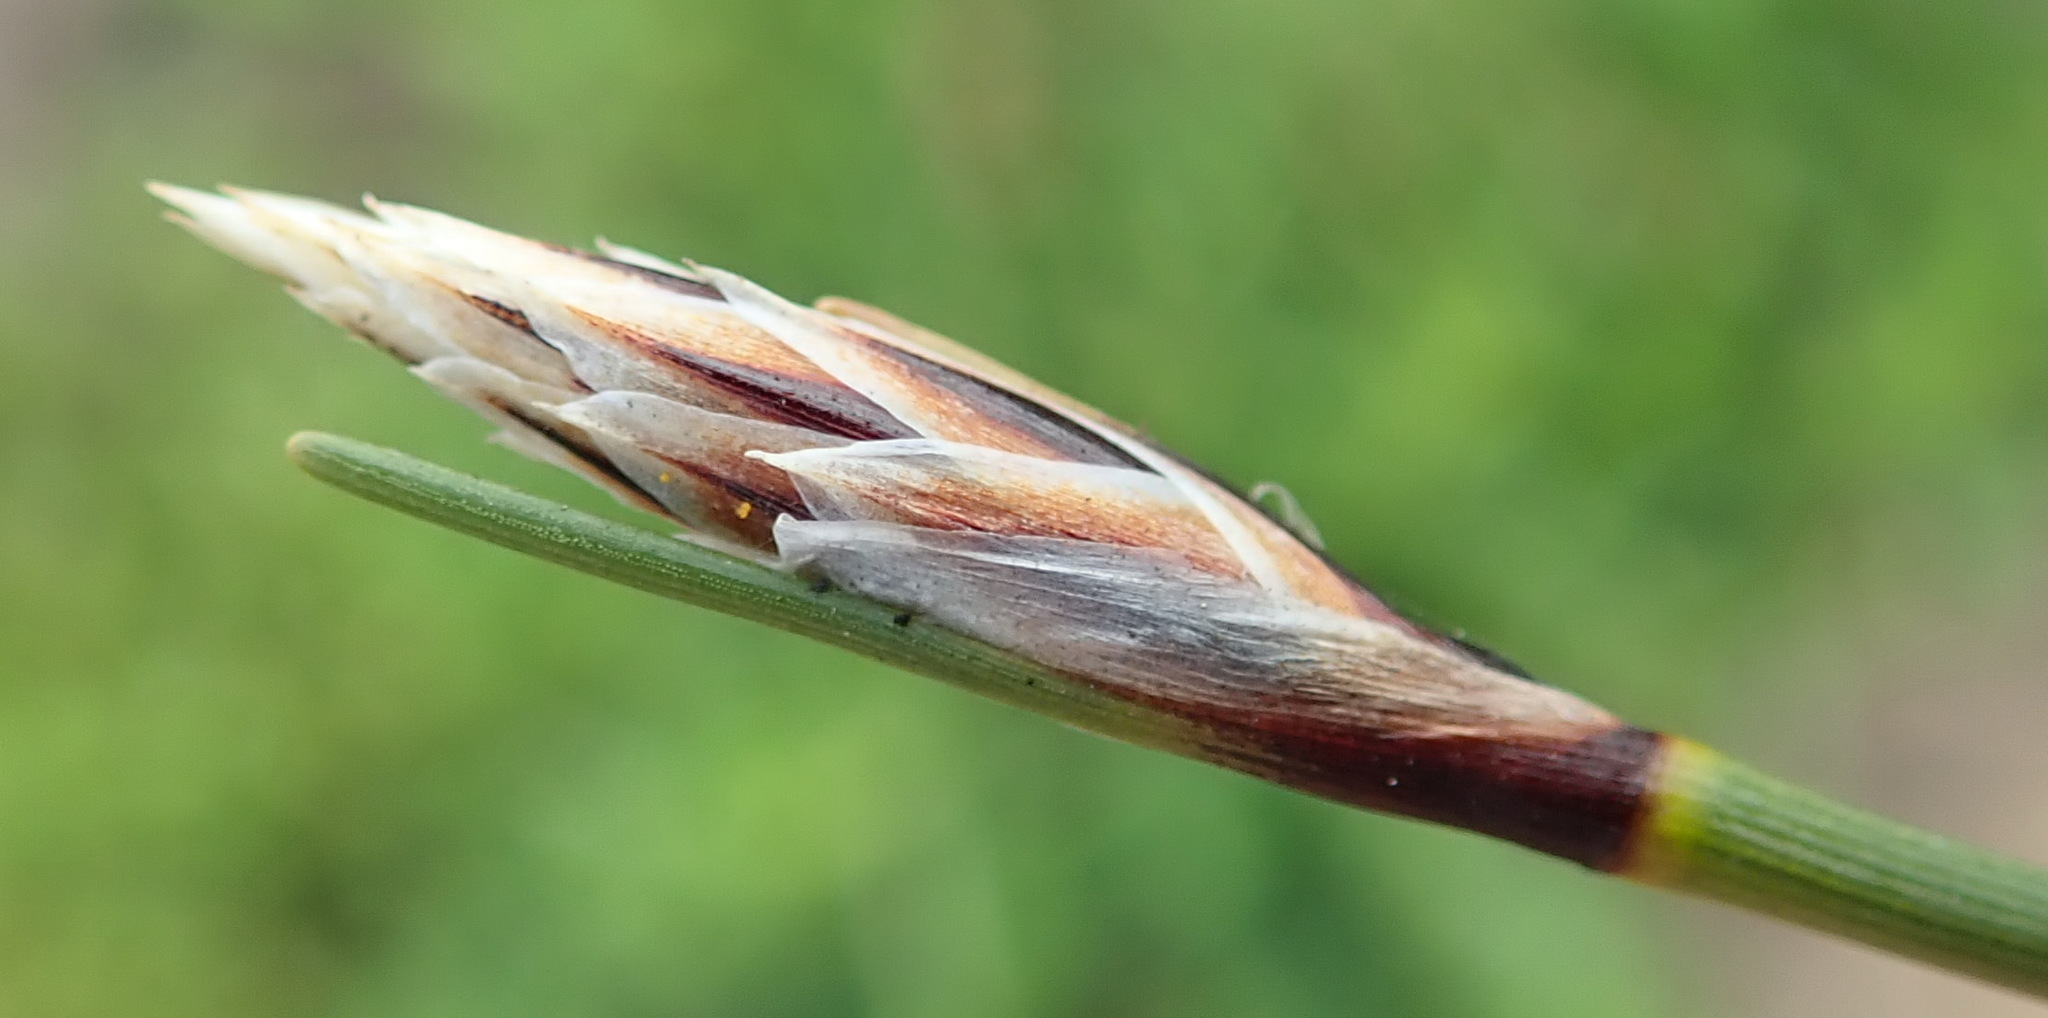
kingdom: Plantae
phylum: Tracheophyta
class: Liliopsida
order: Poales
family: Cyperaceae
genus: Ficinia
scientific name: Ficinia deusta
